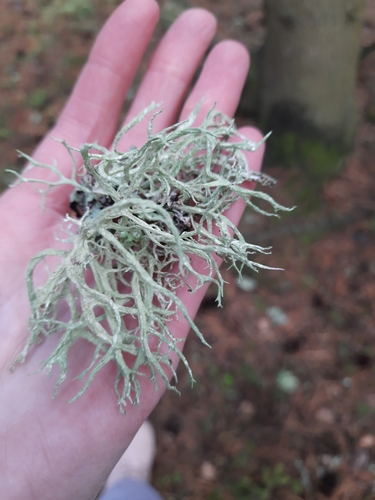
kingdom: Fungi
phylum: Ascomycota
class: Lecanoromycetes
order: Lecanorales
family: Parmeliaceae
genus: Evernia
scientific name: Evernia mesomorpha
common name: Boreal oak moss lichen
